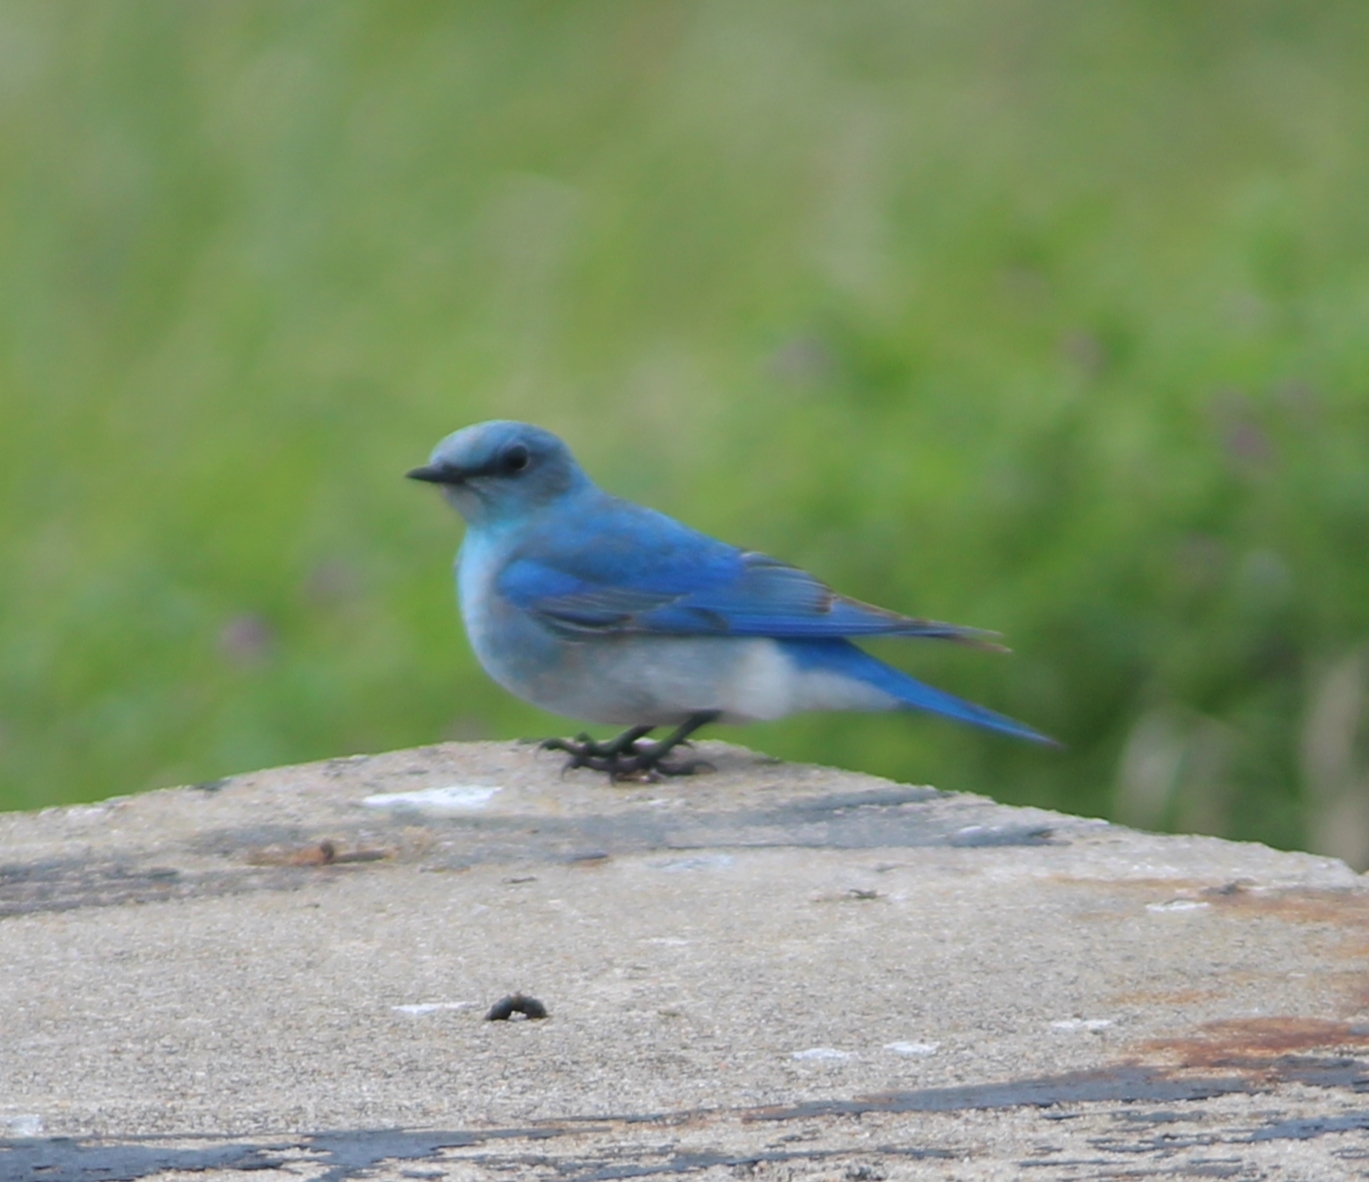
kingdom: Animalia
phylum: Chordata
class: Aves
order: Passeriformes
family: Turdidae
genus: Sialia
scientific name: Sialia currucoides
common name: Mountain bluebird
